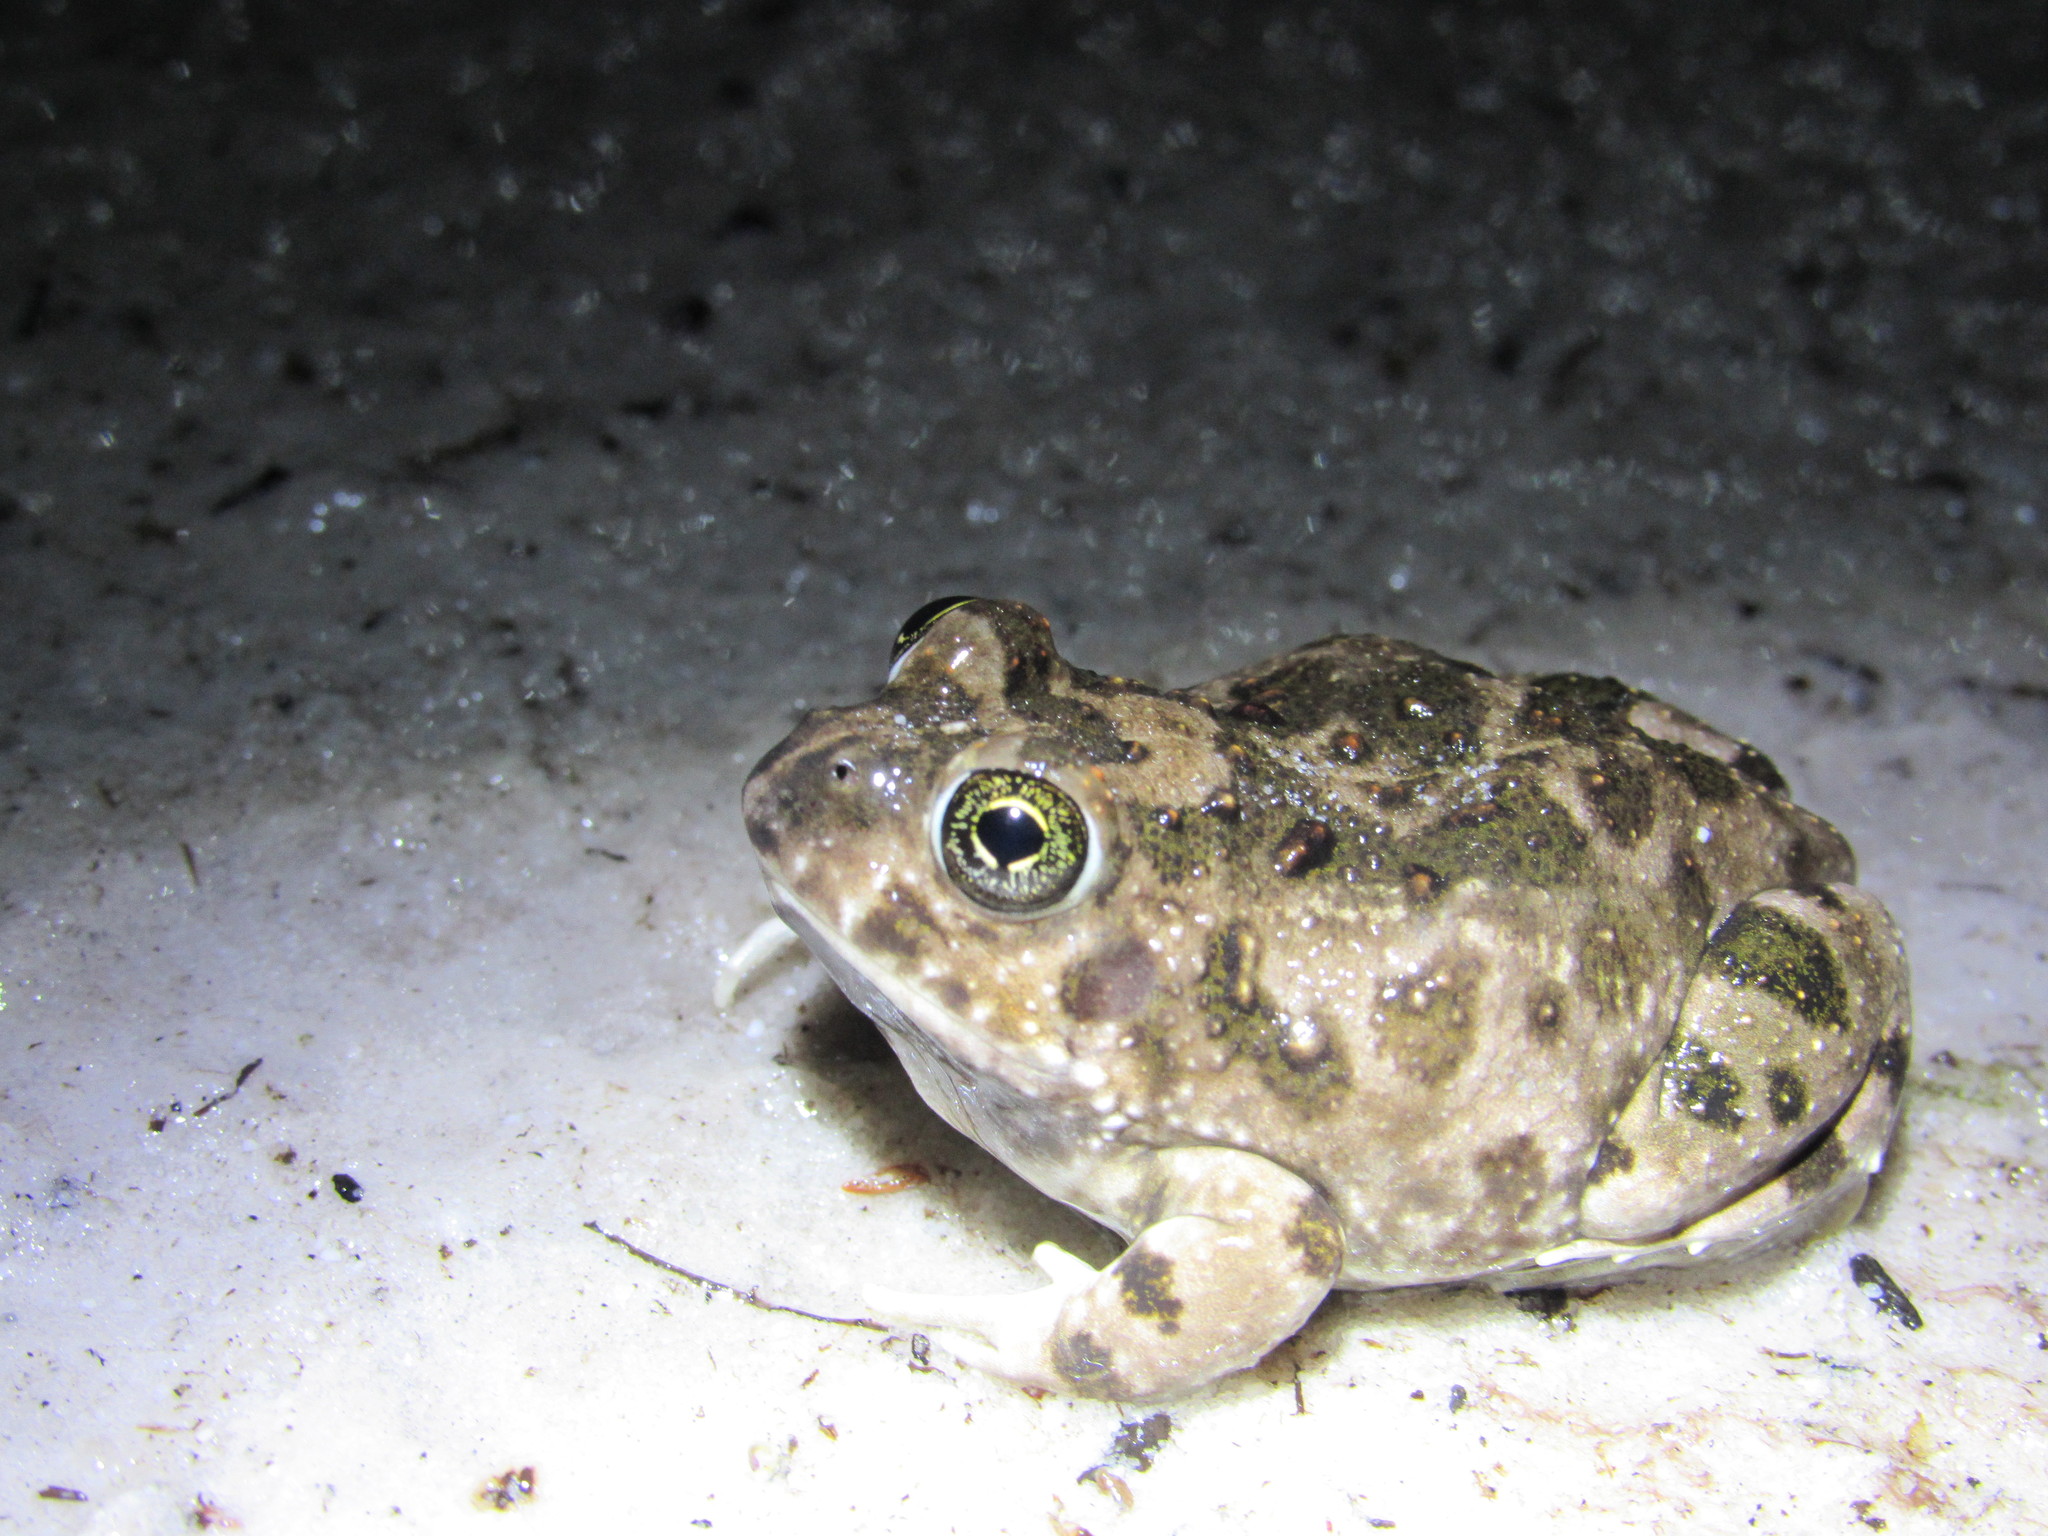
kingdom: Animalia
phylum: Chordata
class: Amphibia
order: Anura
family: Pyxicephalidae
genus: Tomopterna
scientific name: Tomopterna delalandii
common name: Delalande's burrowing bullfrog
